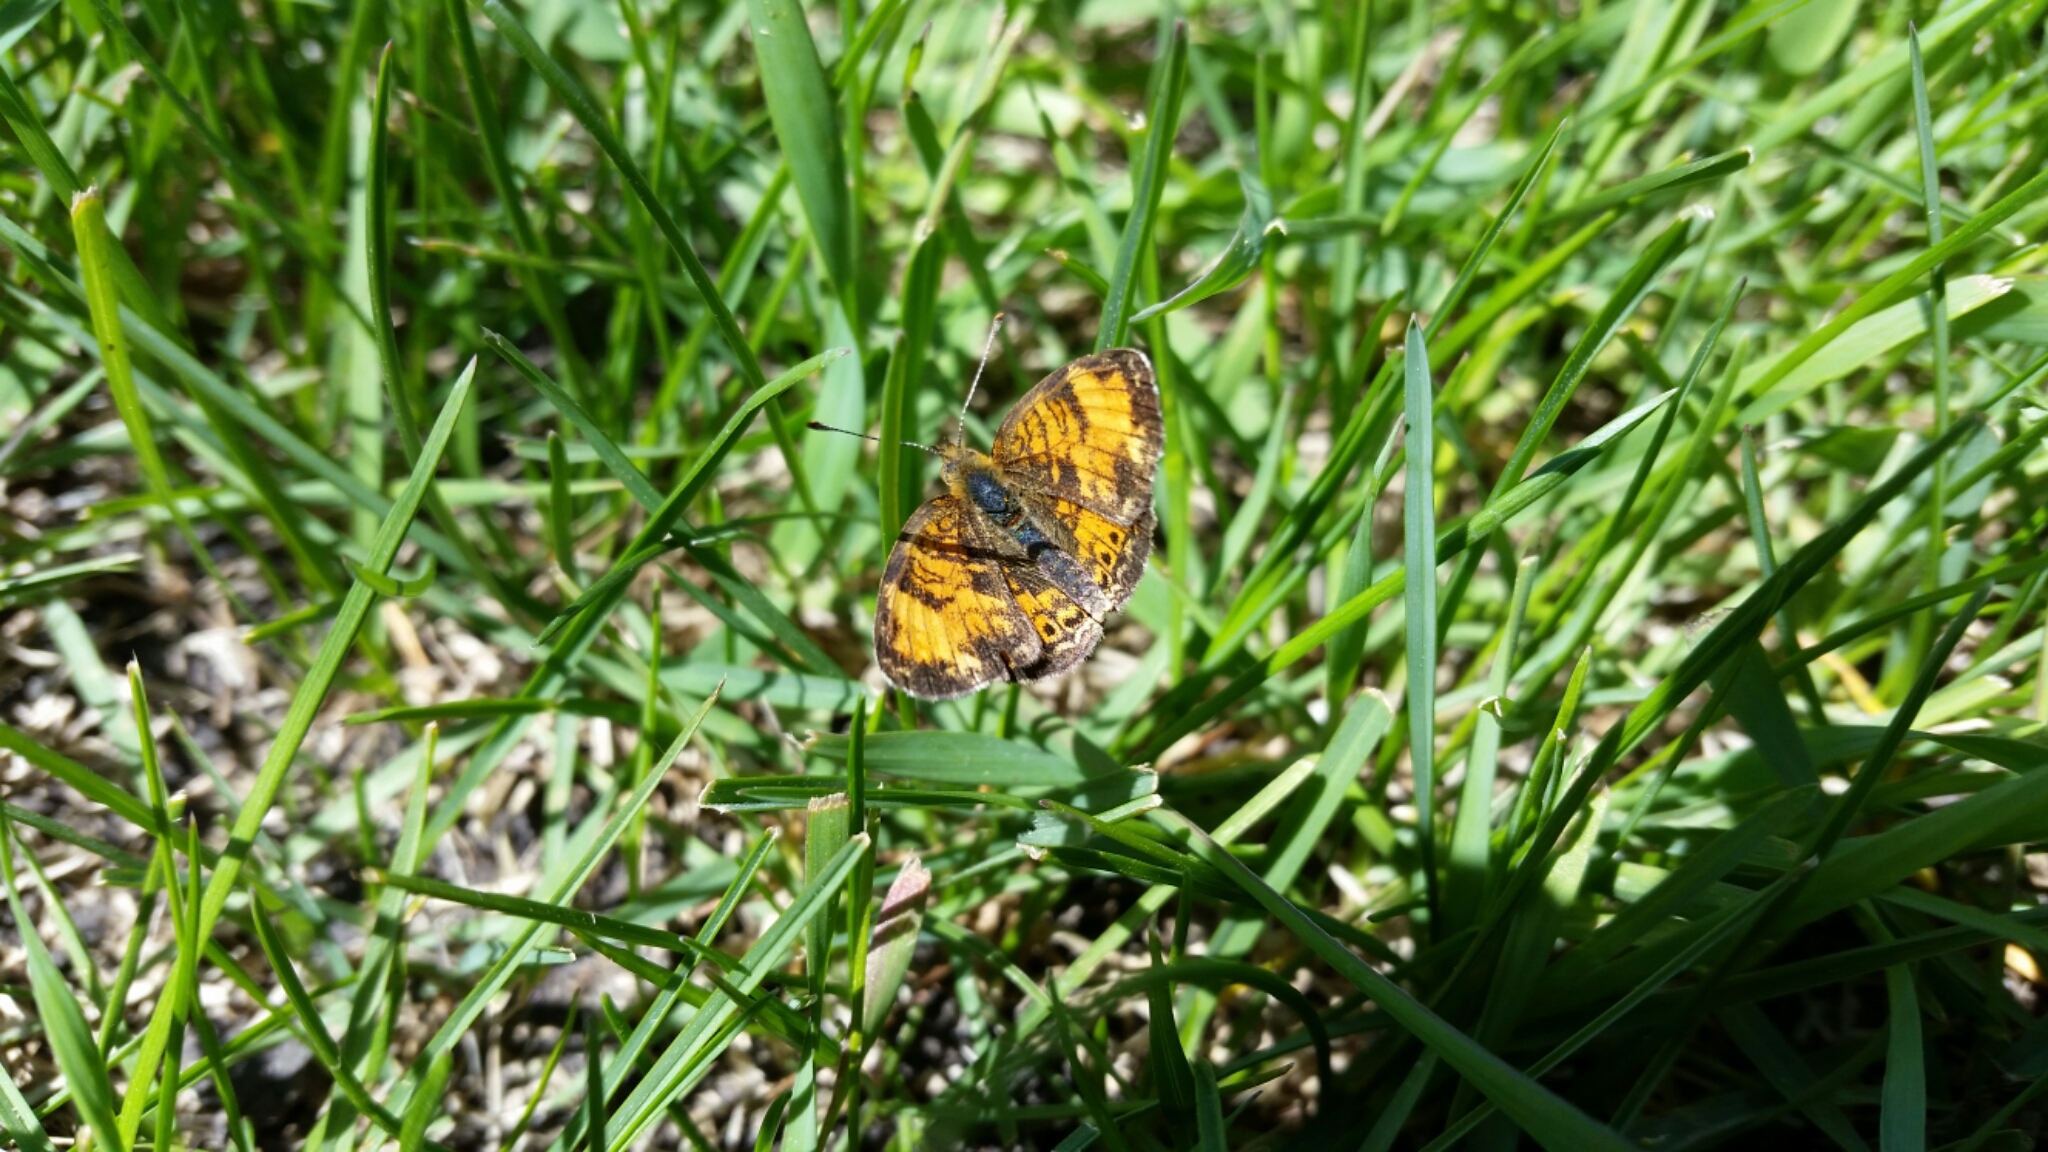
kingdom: Animalia
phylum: Arthropoda
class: Insecta
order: Lepidoptera
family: Nymphalidae
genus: Phyciodes
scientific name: Phyciodes tharos
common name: Pearl crescent
